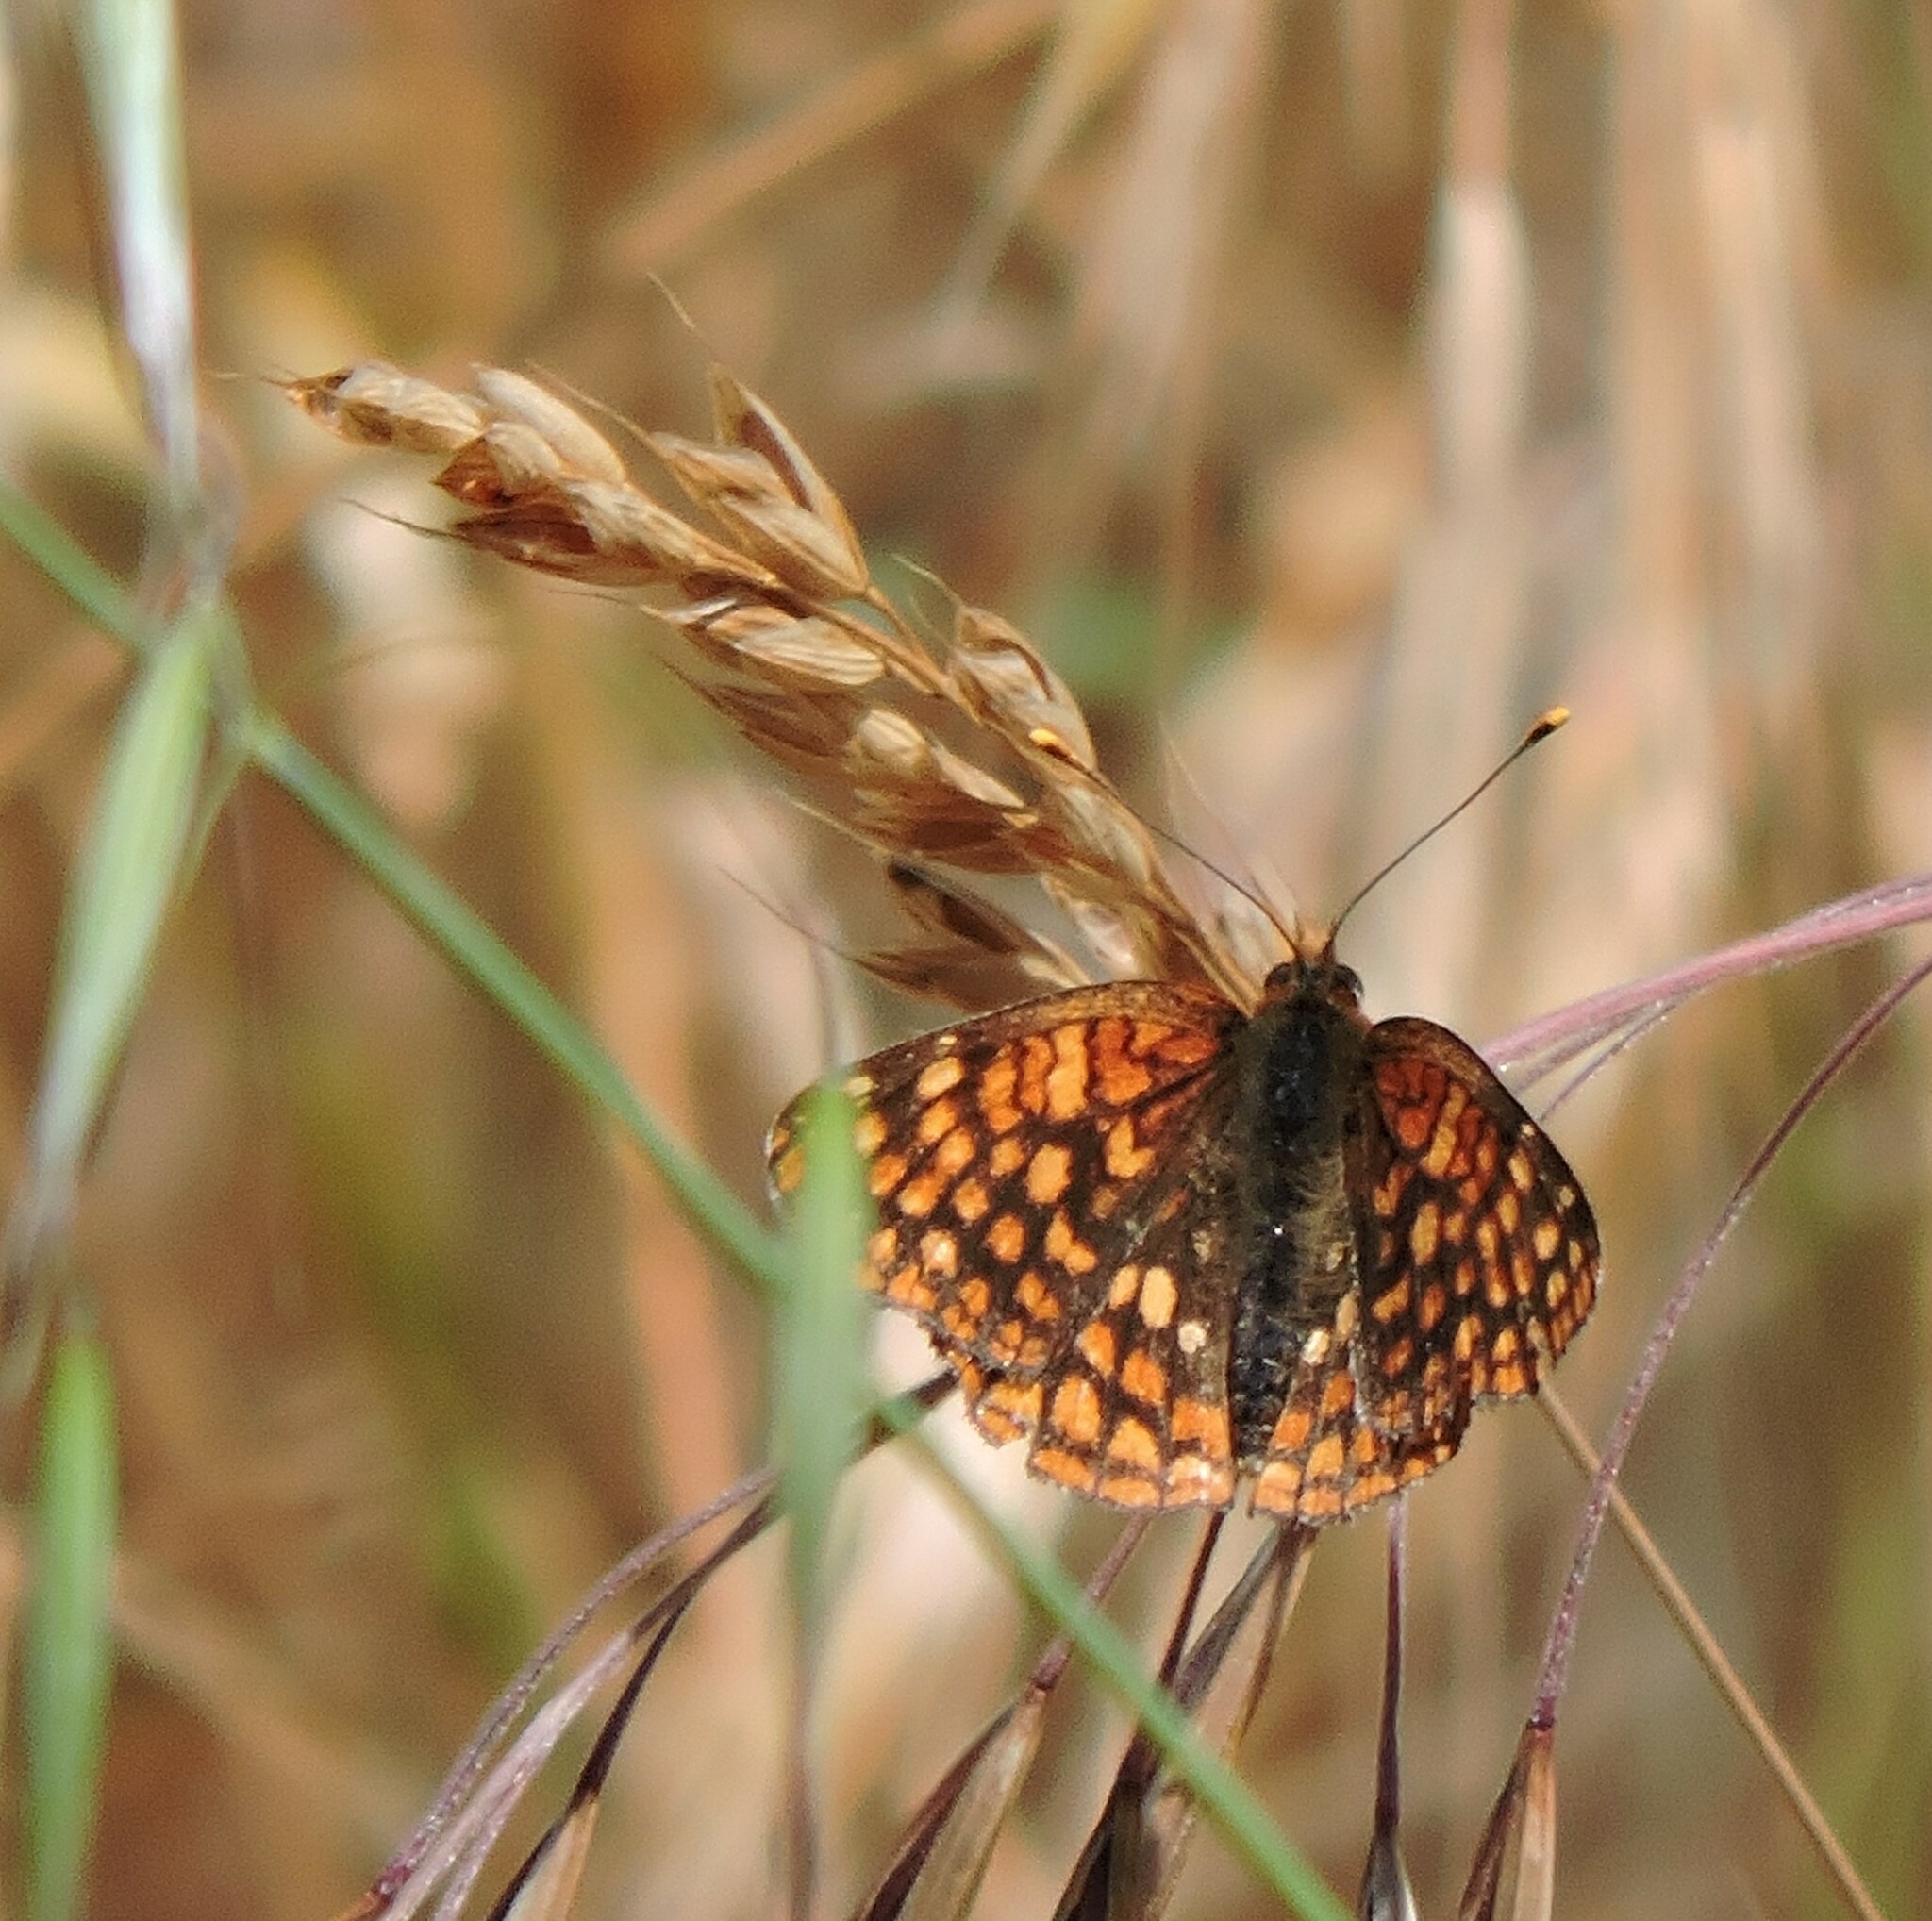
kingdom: Animalia
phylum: Arthropoda
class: Insecta
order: Lepidoptera
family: Nymphalidae
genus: Chlosyne
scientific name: Chlosyne palla
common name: Northern checkerspot
